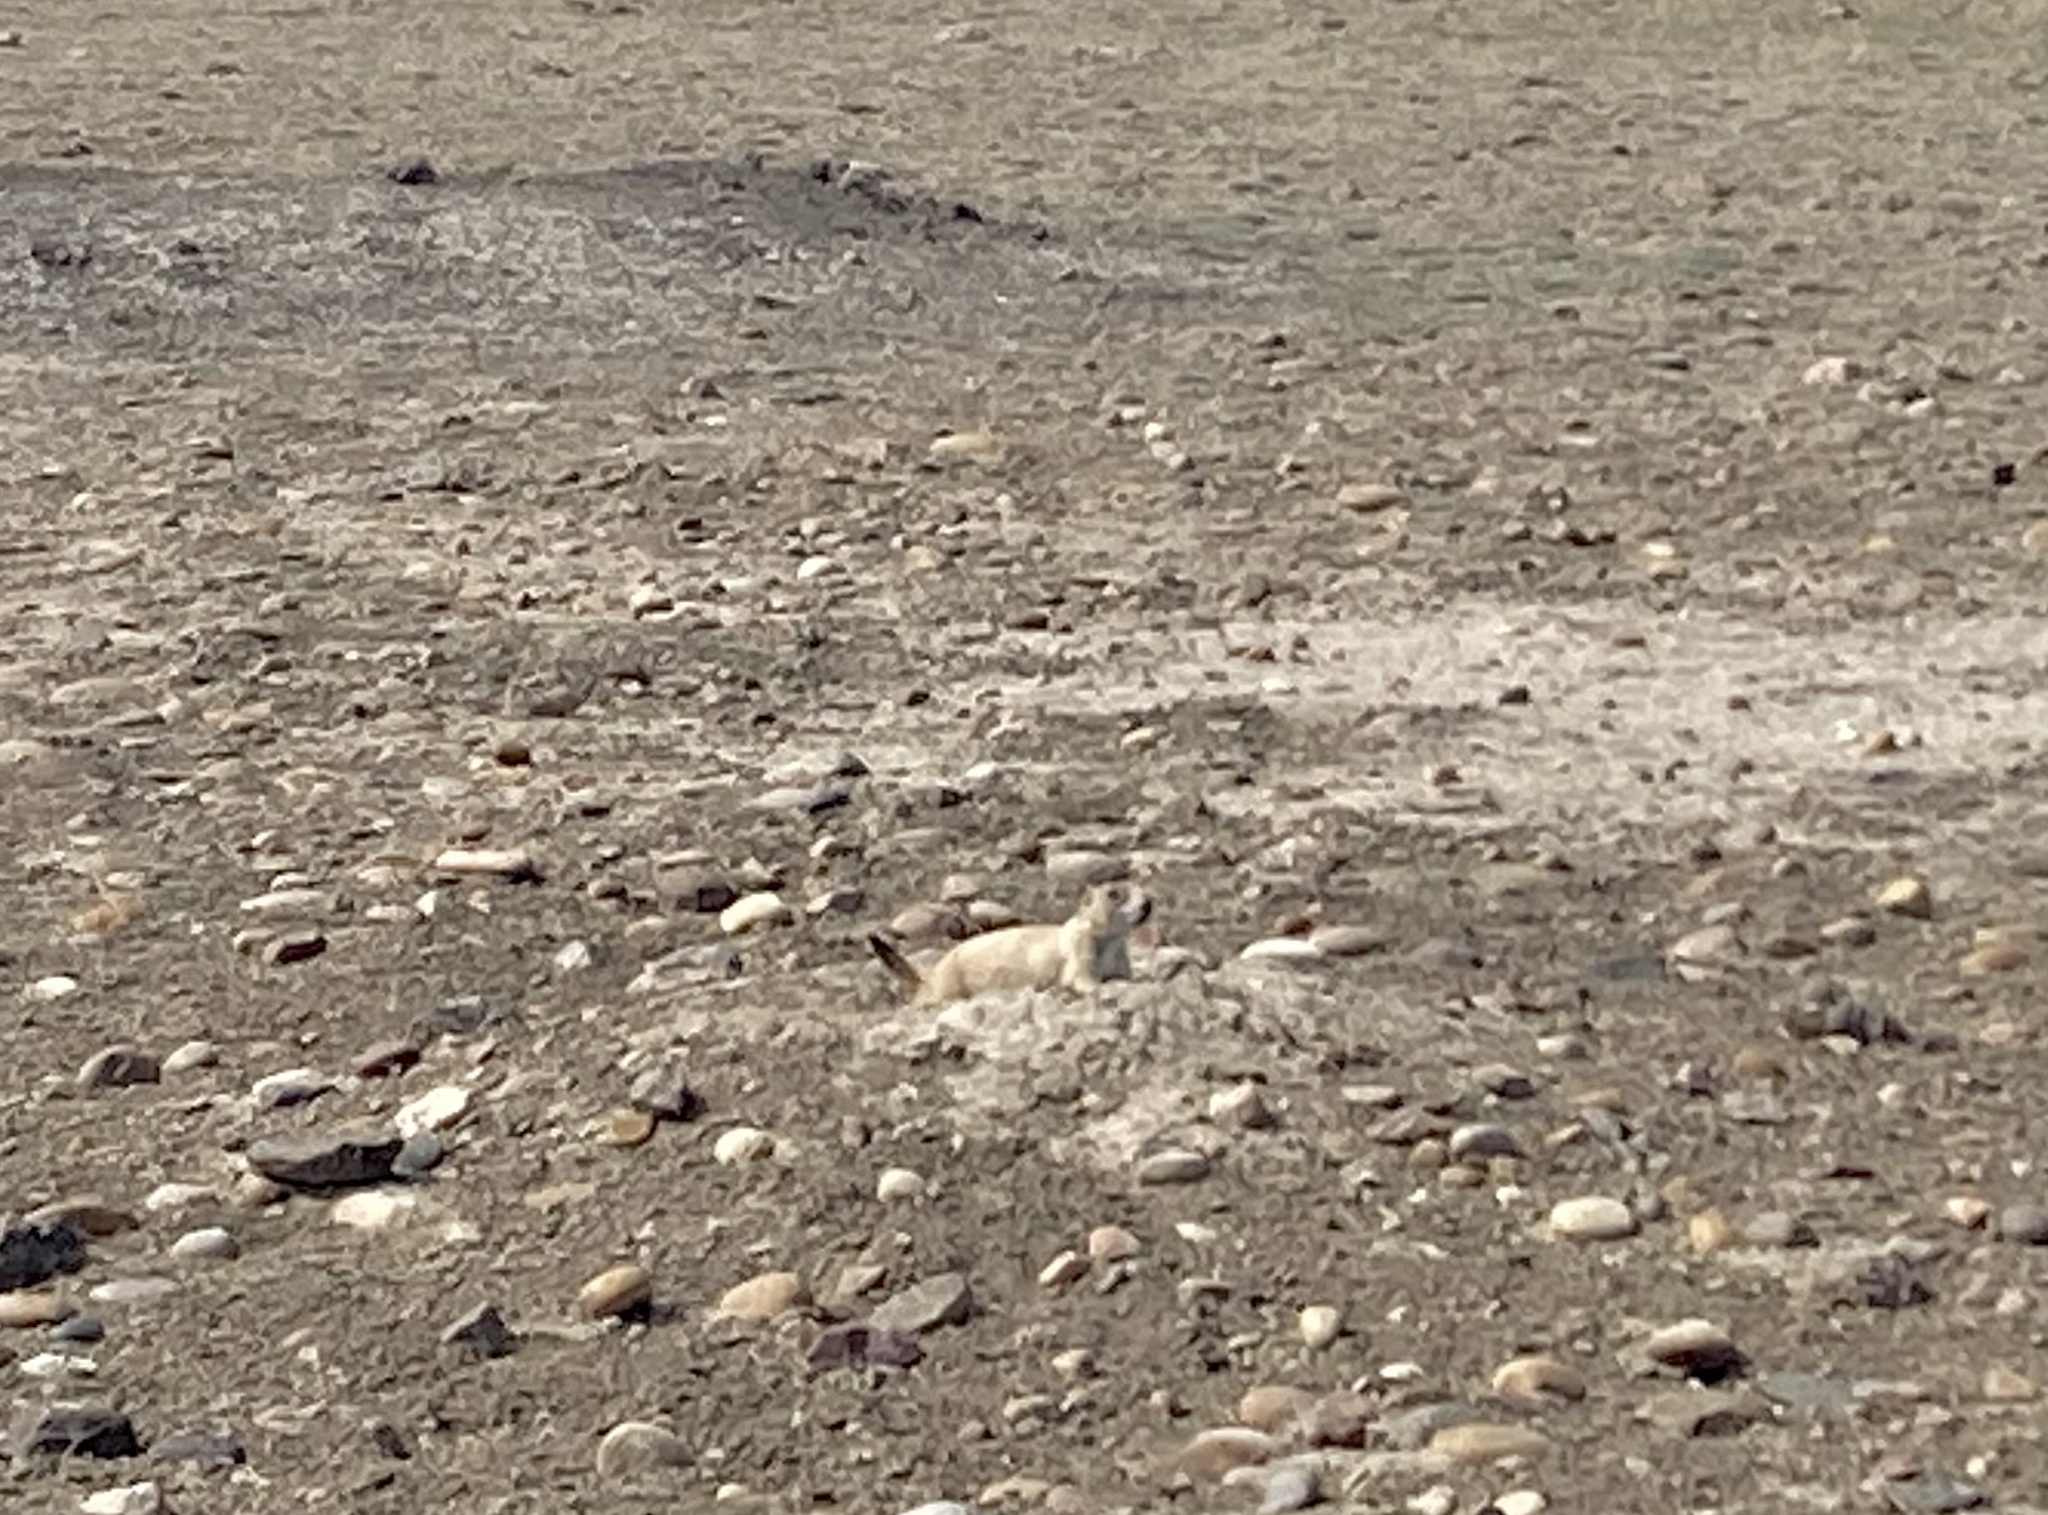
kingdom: Animalia
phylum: Chordata
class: Mammalia
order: Rodentia
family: Sciuridae
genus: Cynomys
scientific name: Cynomys ludovicianus
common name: Black-tailed prairie dog
